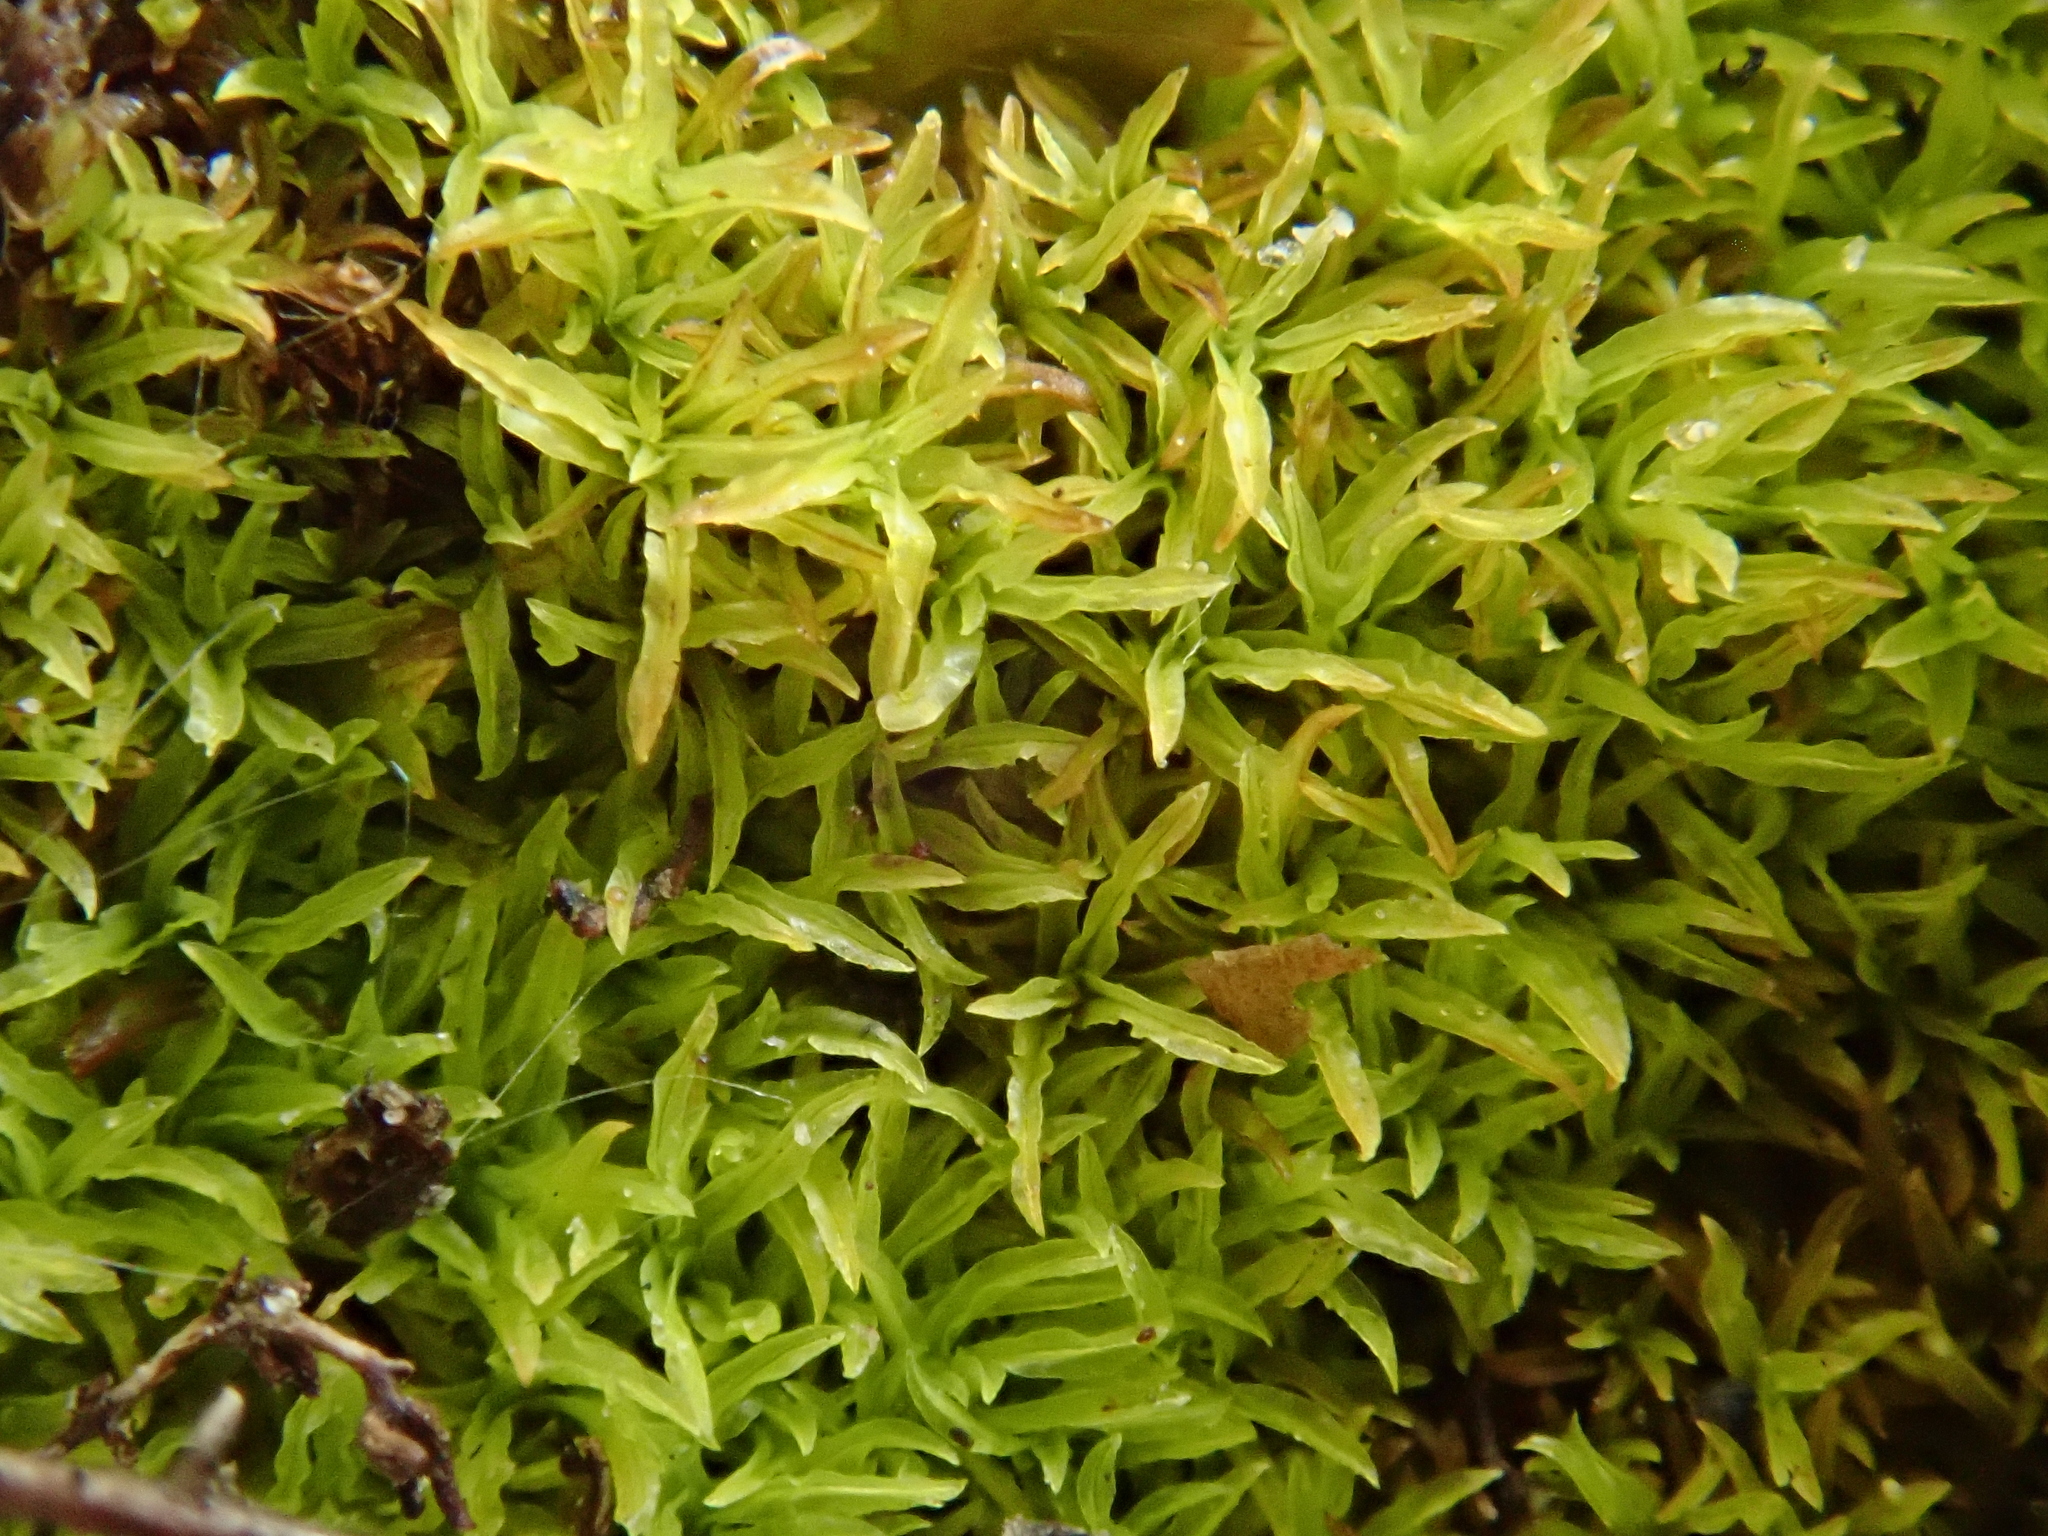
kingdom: Plantae
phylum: Bryophyta
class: Bryopsida
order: Pottiales
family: Pottiaceae
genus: Streblotrichum
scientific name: Streblotrichum convolutum
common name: Lesser bird's-claw beard-moss
